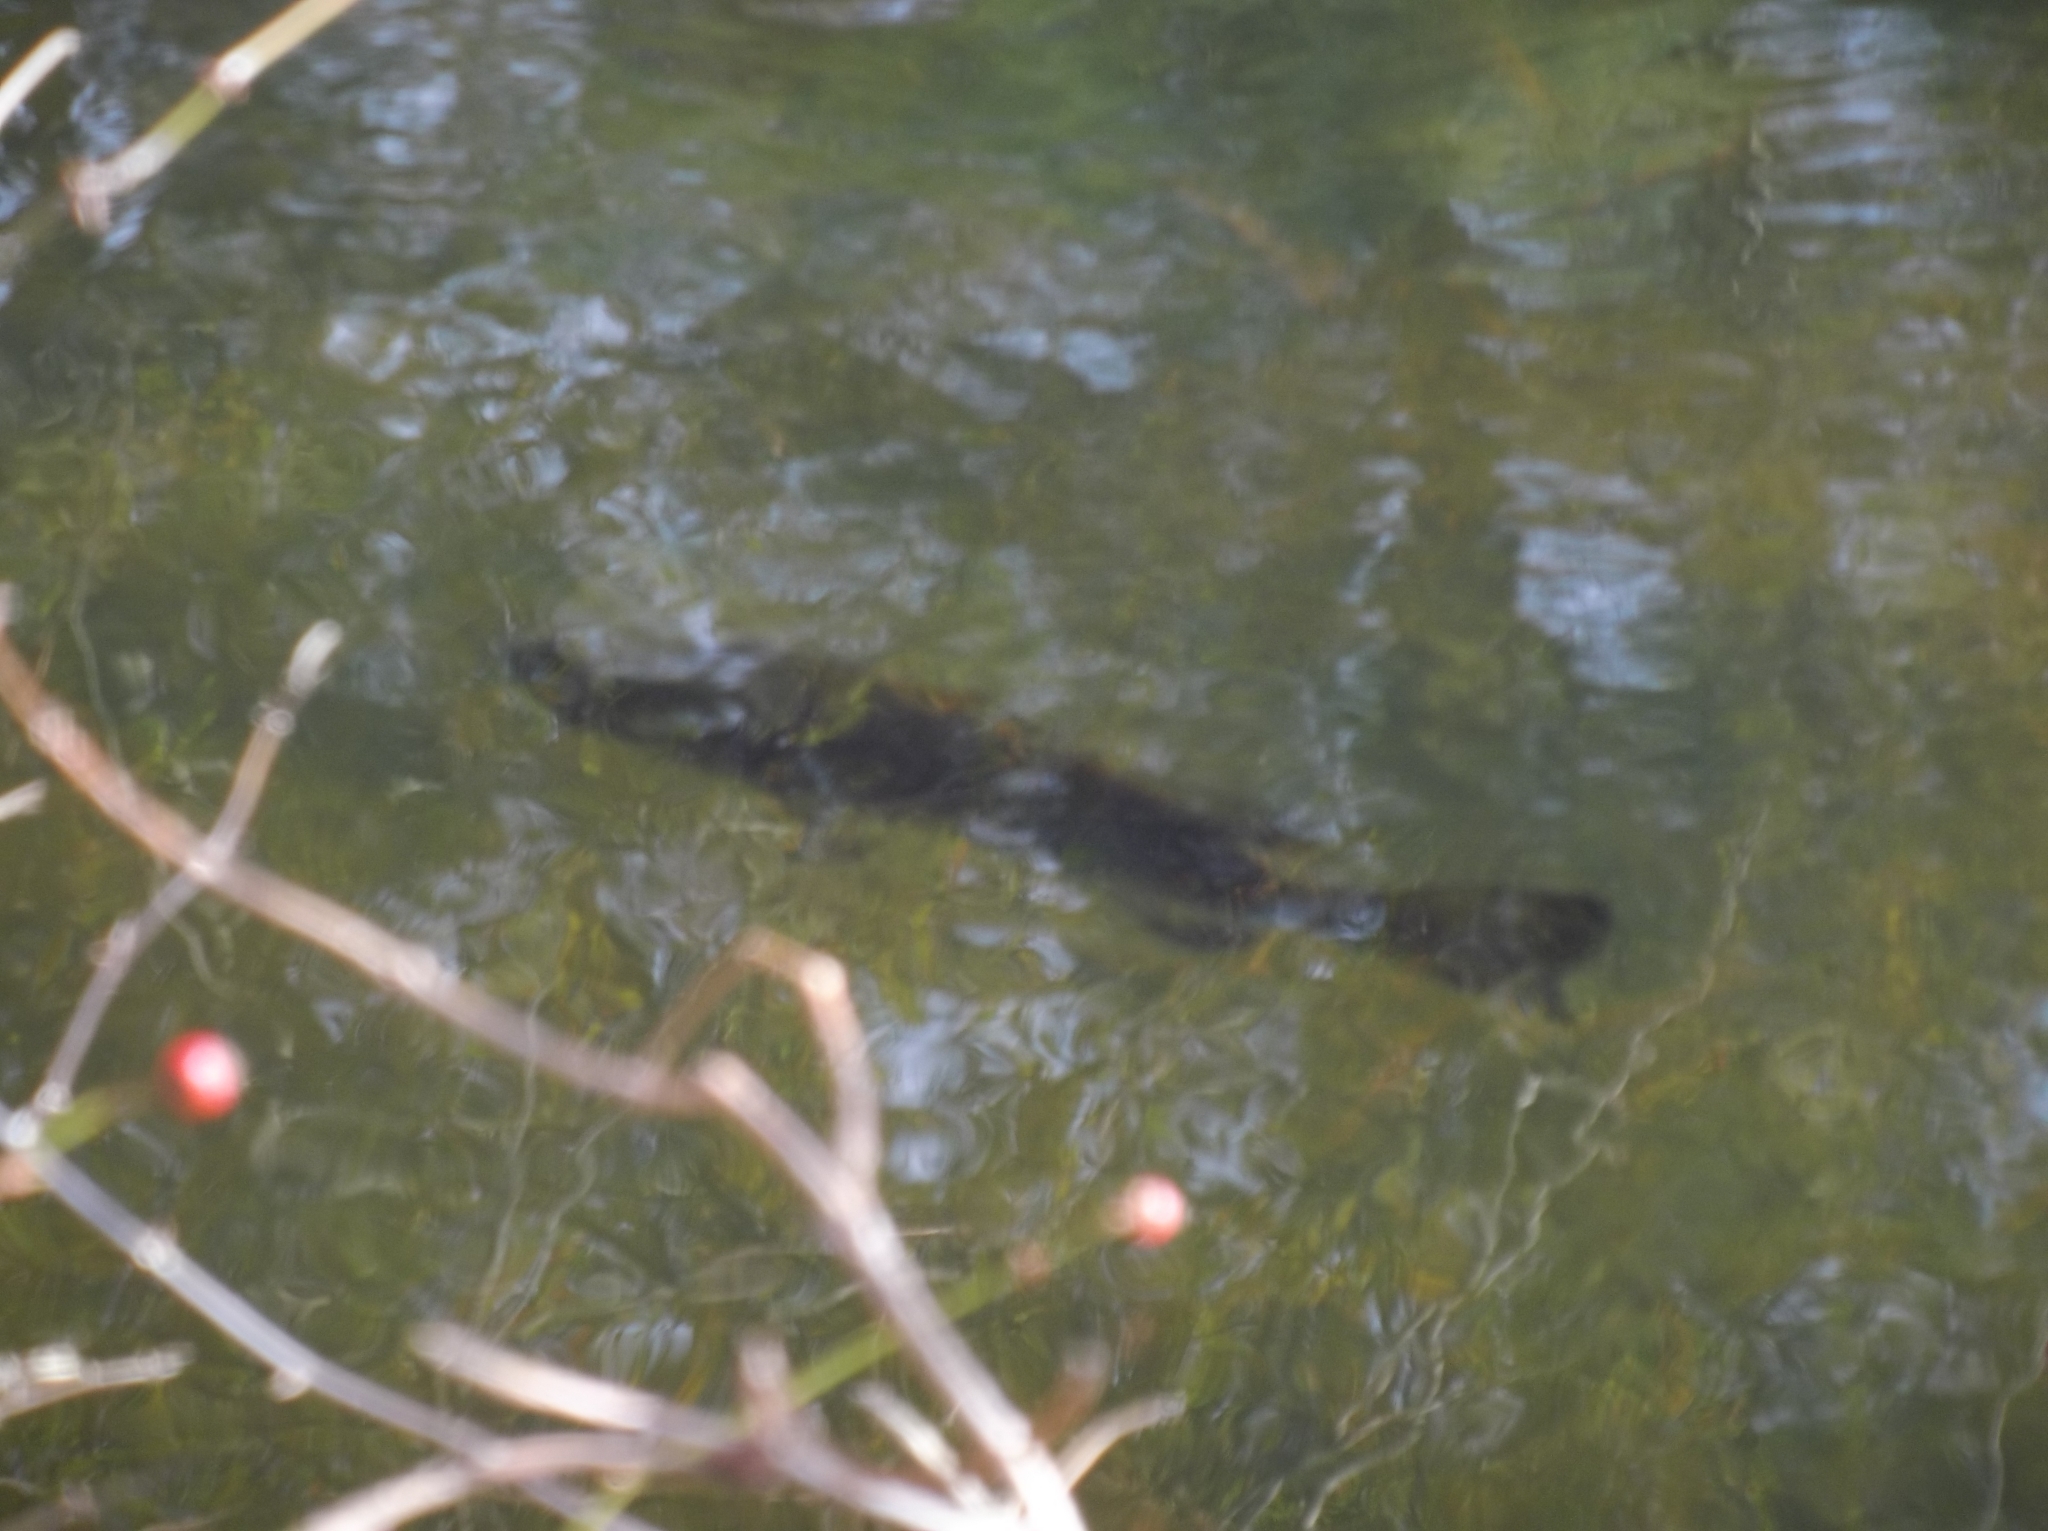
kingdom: Animalia
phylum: Chordata
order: Perciformes
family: Centrarchidae
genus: Micropterus
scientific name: Micropterus
